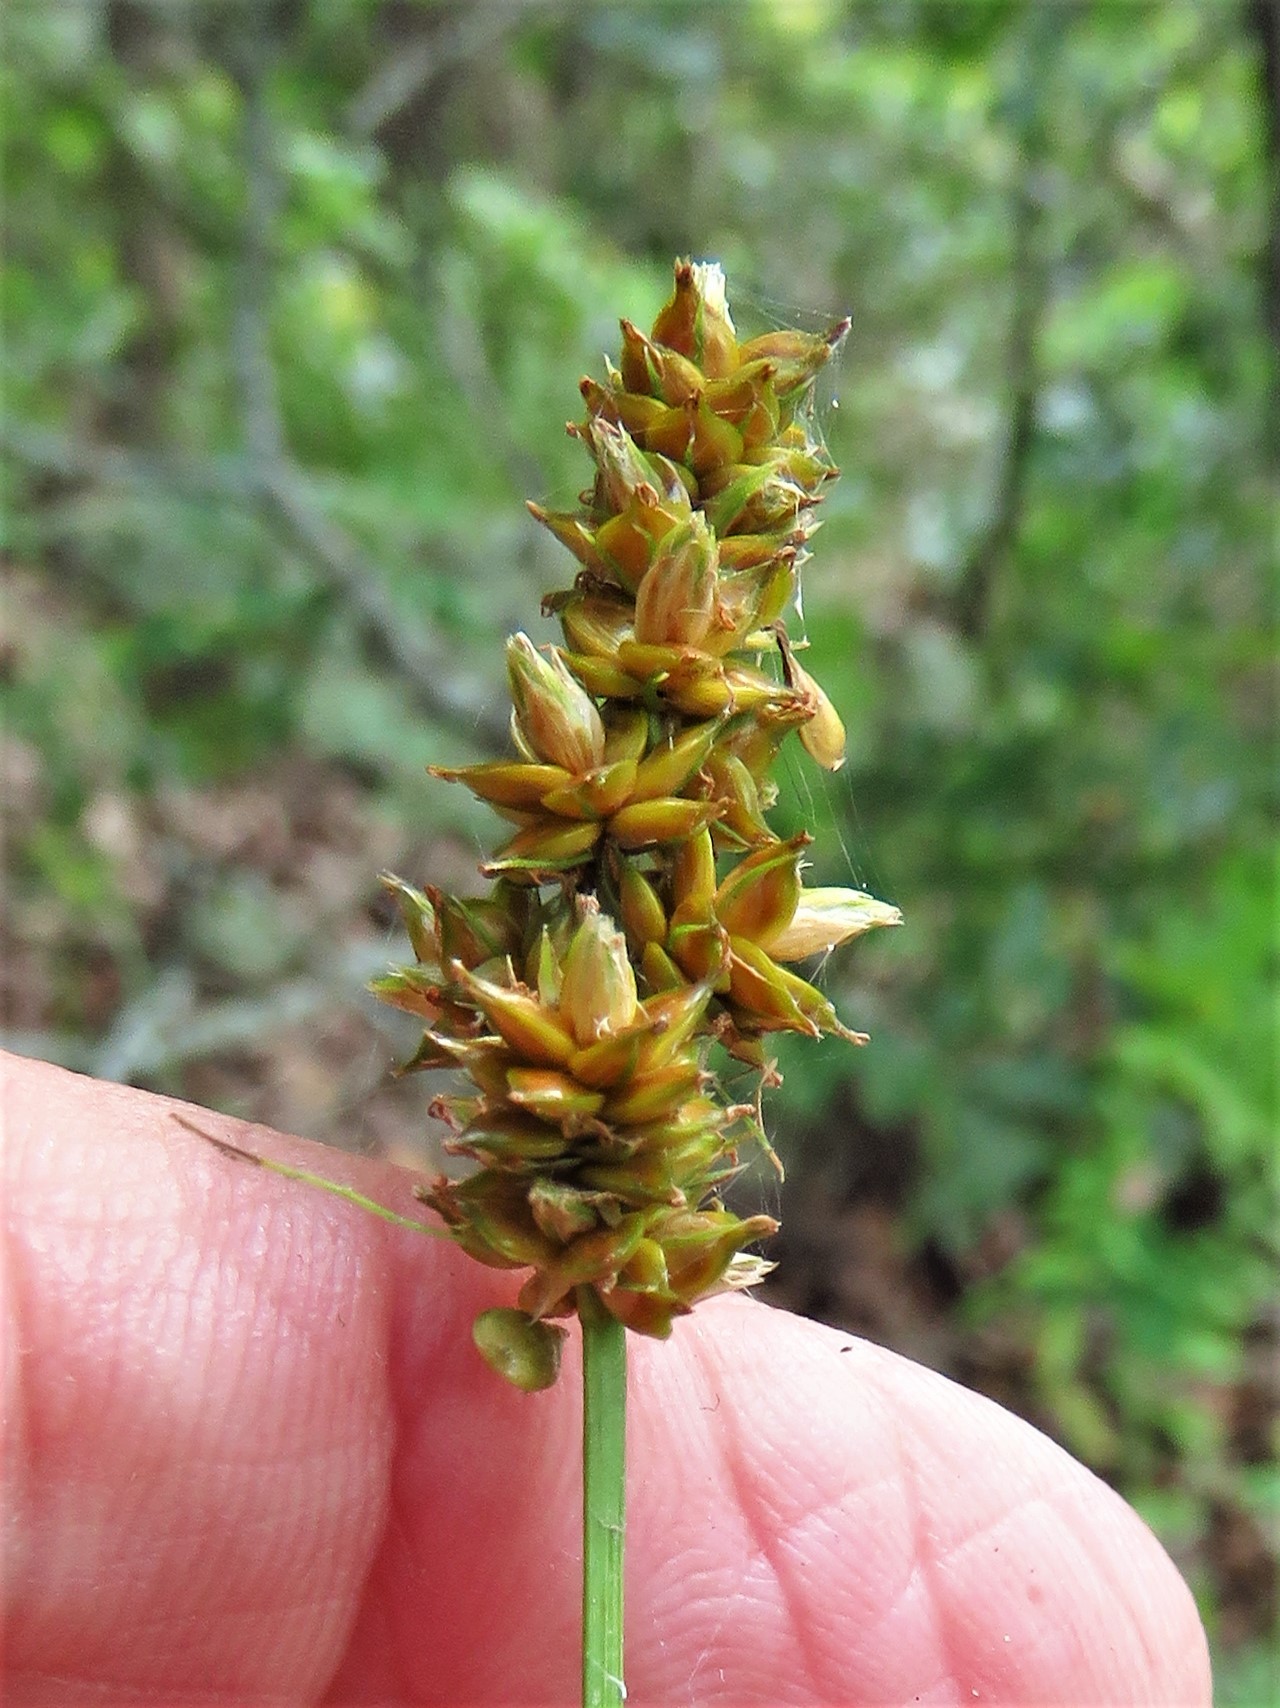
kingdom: Plantae
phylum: Tracheophyta
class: Liliopsida
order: Poales
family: Cyperaceae
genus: Carex
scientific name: Carex muehlenbergii
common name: Muhlenberg's bracted sedge
